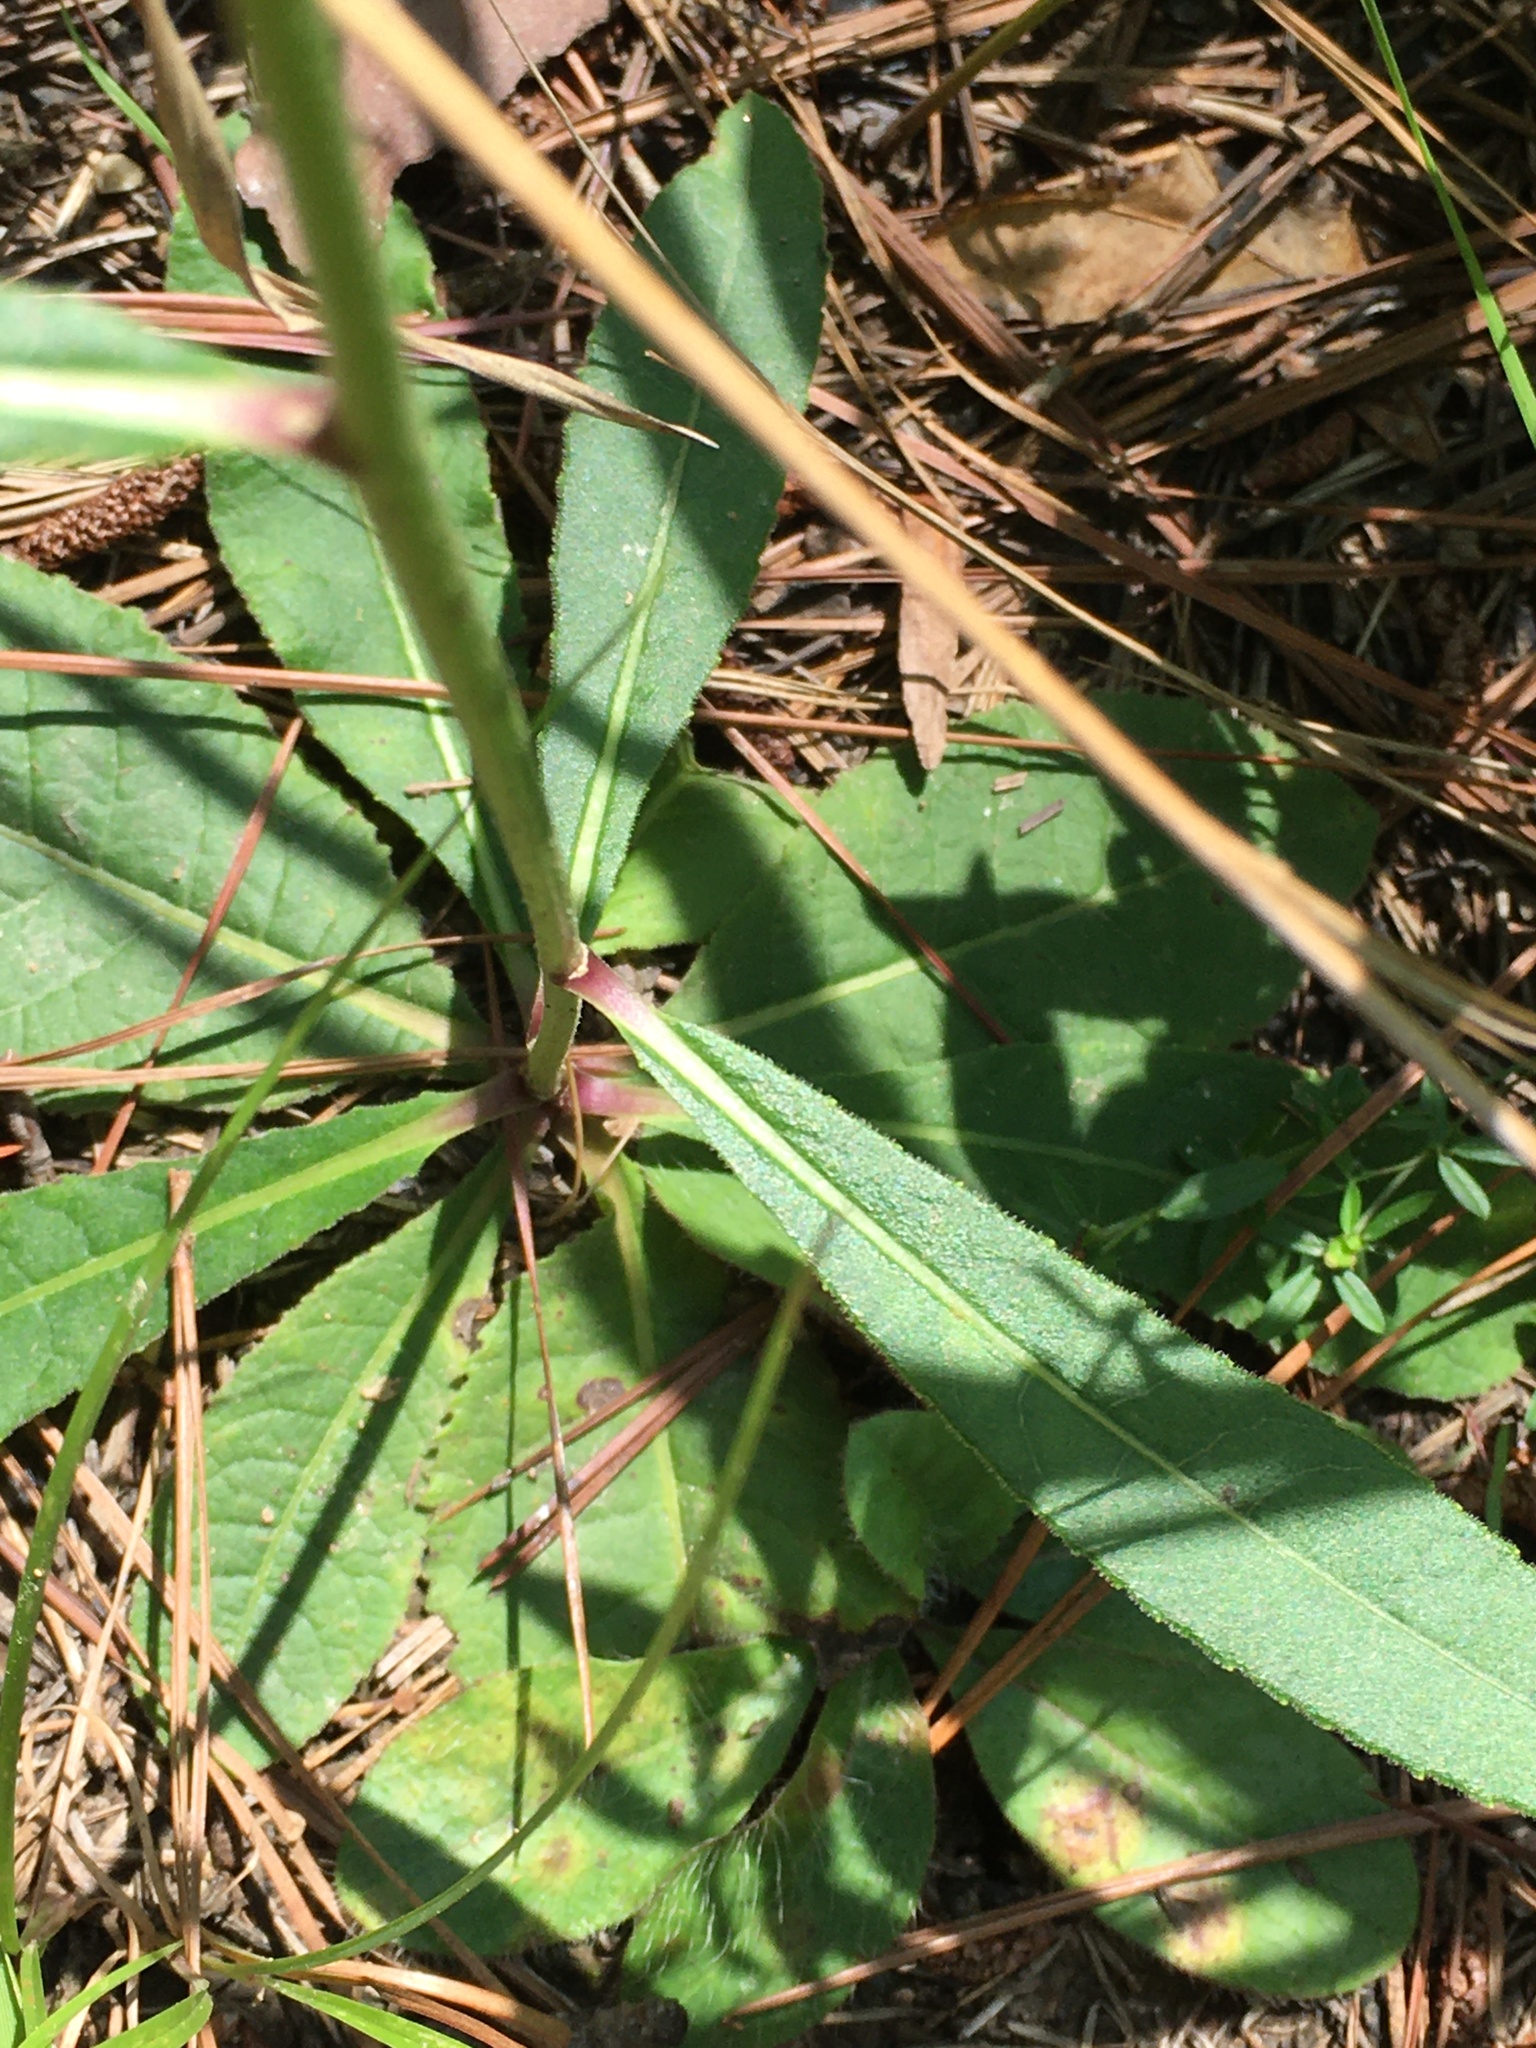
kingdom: Plantae
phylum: Tracheophyta
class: Magnoliopsida
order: Asterales
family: Asteraceae
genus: Vernonia
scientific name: Vernonia acaulis
